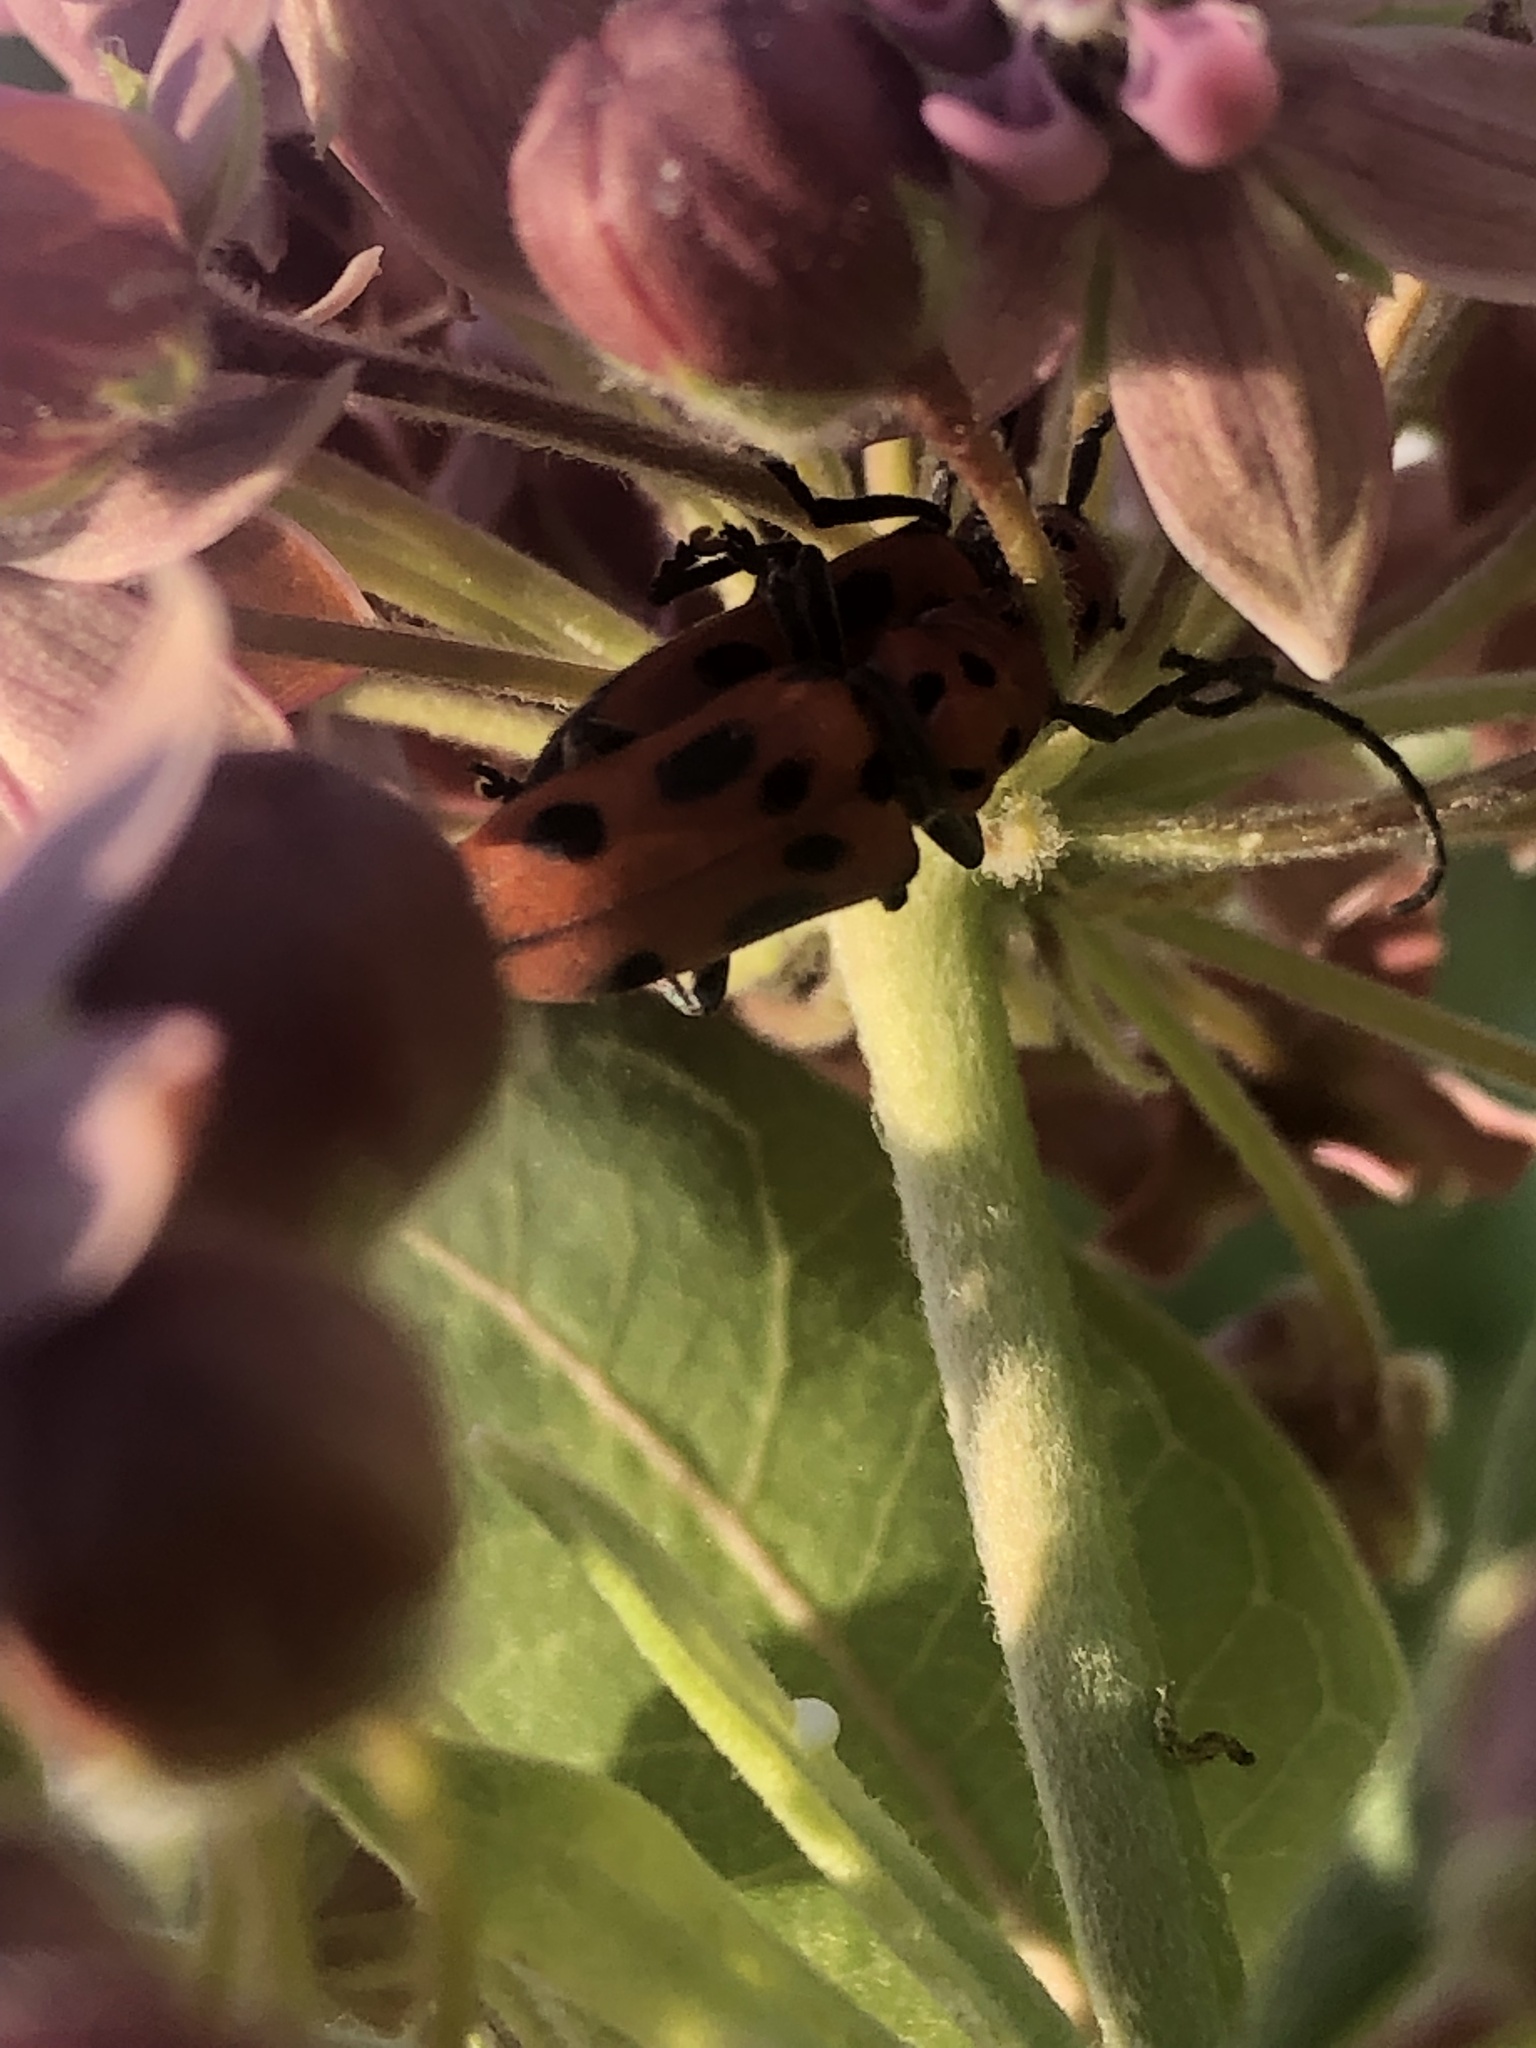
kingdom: Animalia
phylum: Arthropoda
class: Insecta
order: Coleoptera
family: Cerambycidae
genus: Tetraopes
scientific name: Tetraopes tetrophthalmus
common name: Red milkweed beetle
